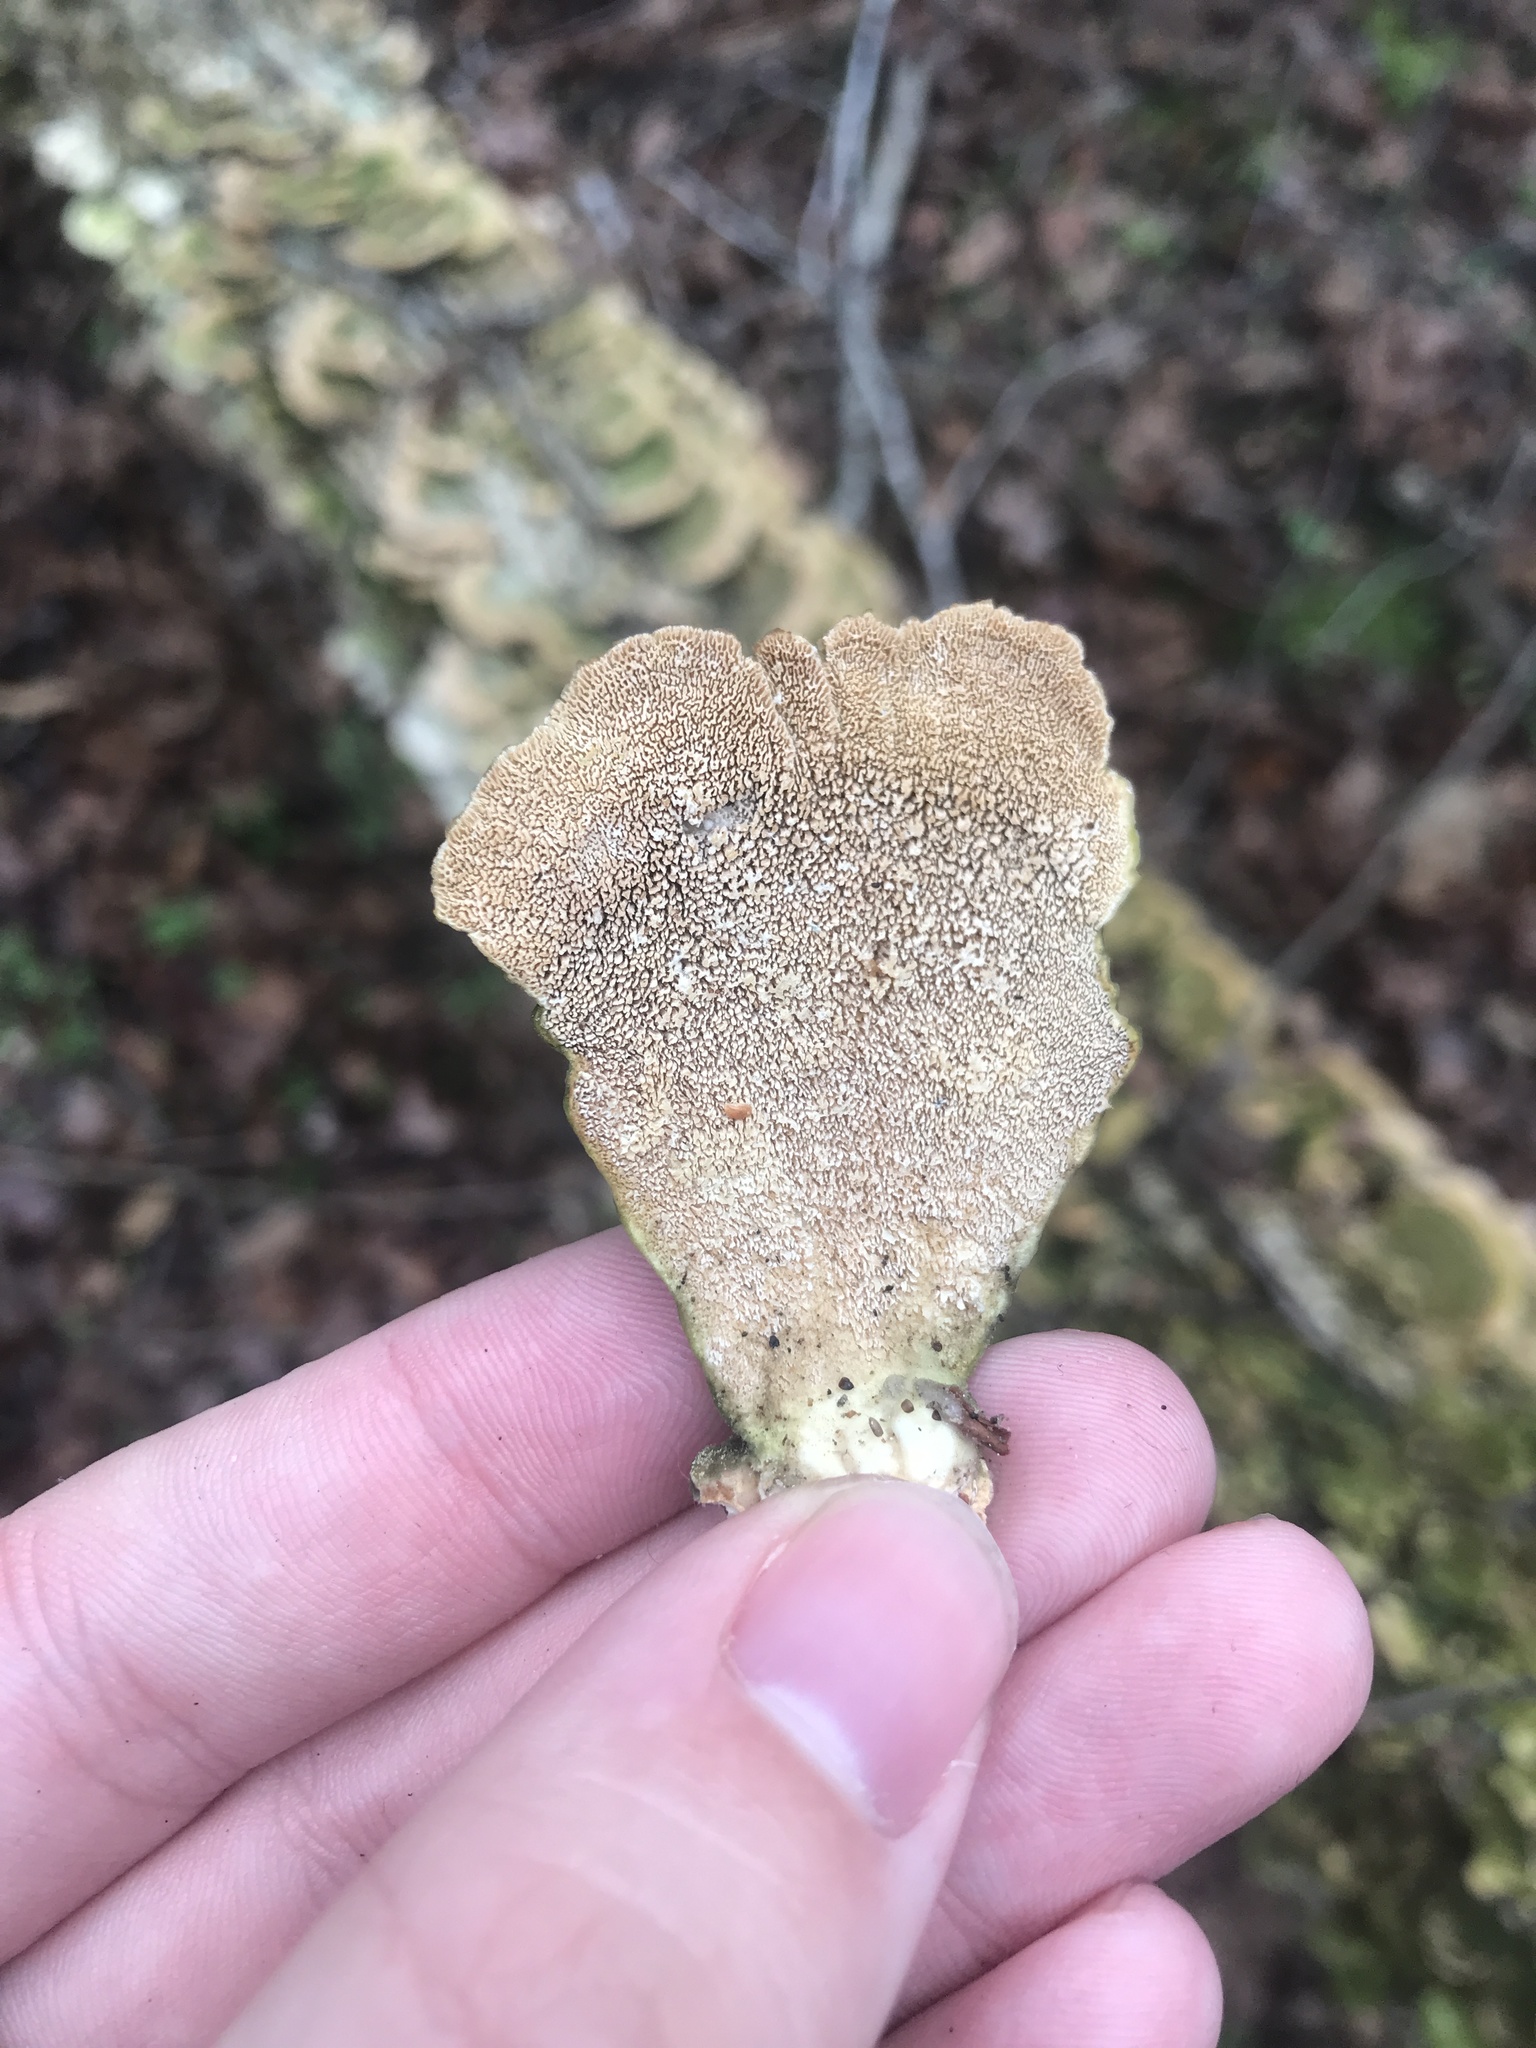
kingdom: Fungi
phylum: Basidiomycota
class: Agaricomycetes
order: Hymenochaetales
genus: Trichaptum
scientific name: Trichaptum biforme
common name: Violet-toothed polypore
